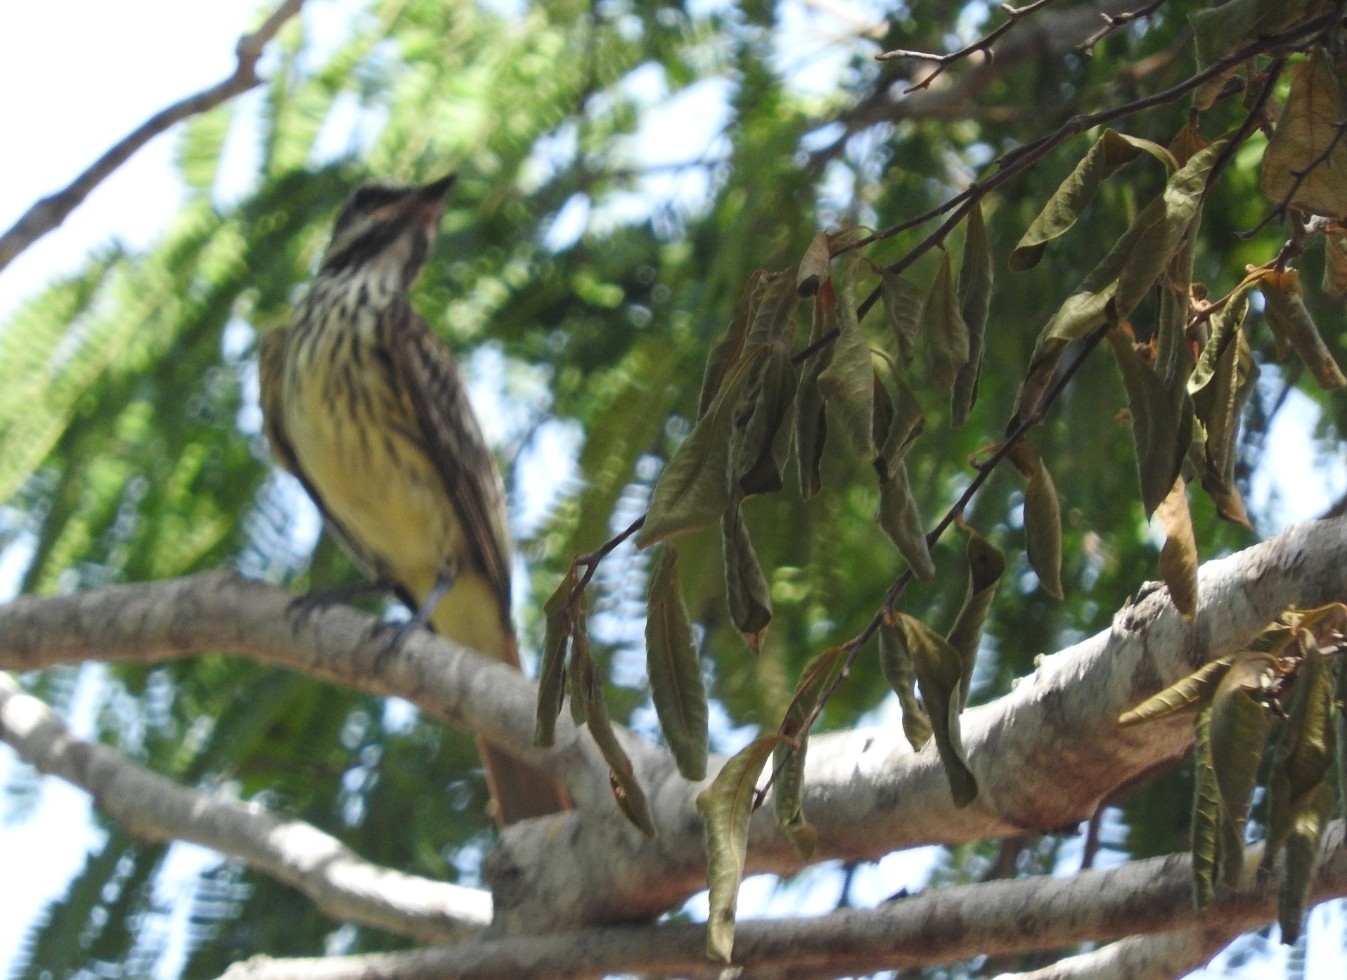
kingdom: Animalia
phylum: Chordata
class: Aves
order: Passeriformes
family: Tyrannidae
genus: Myiodynastes
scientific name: Myiodynastes luteiventris
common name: Sulphur-bellied flycatcher
